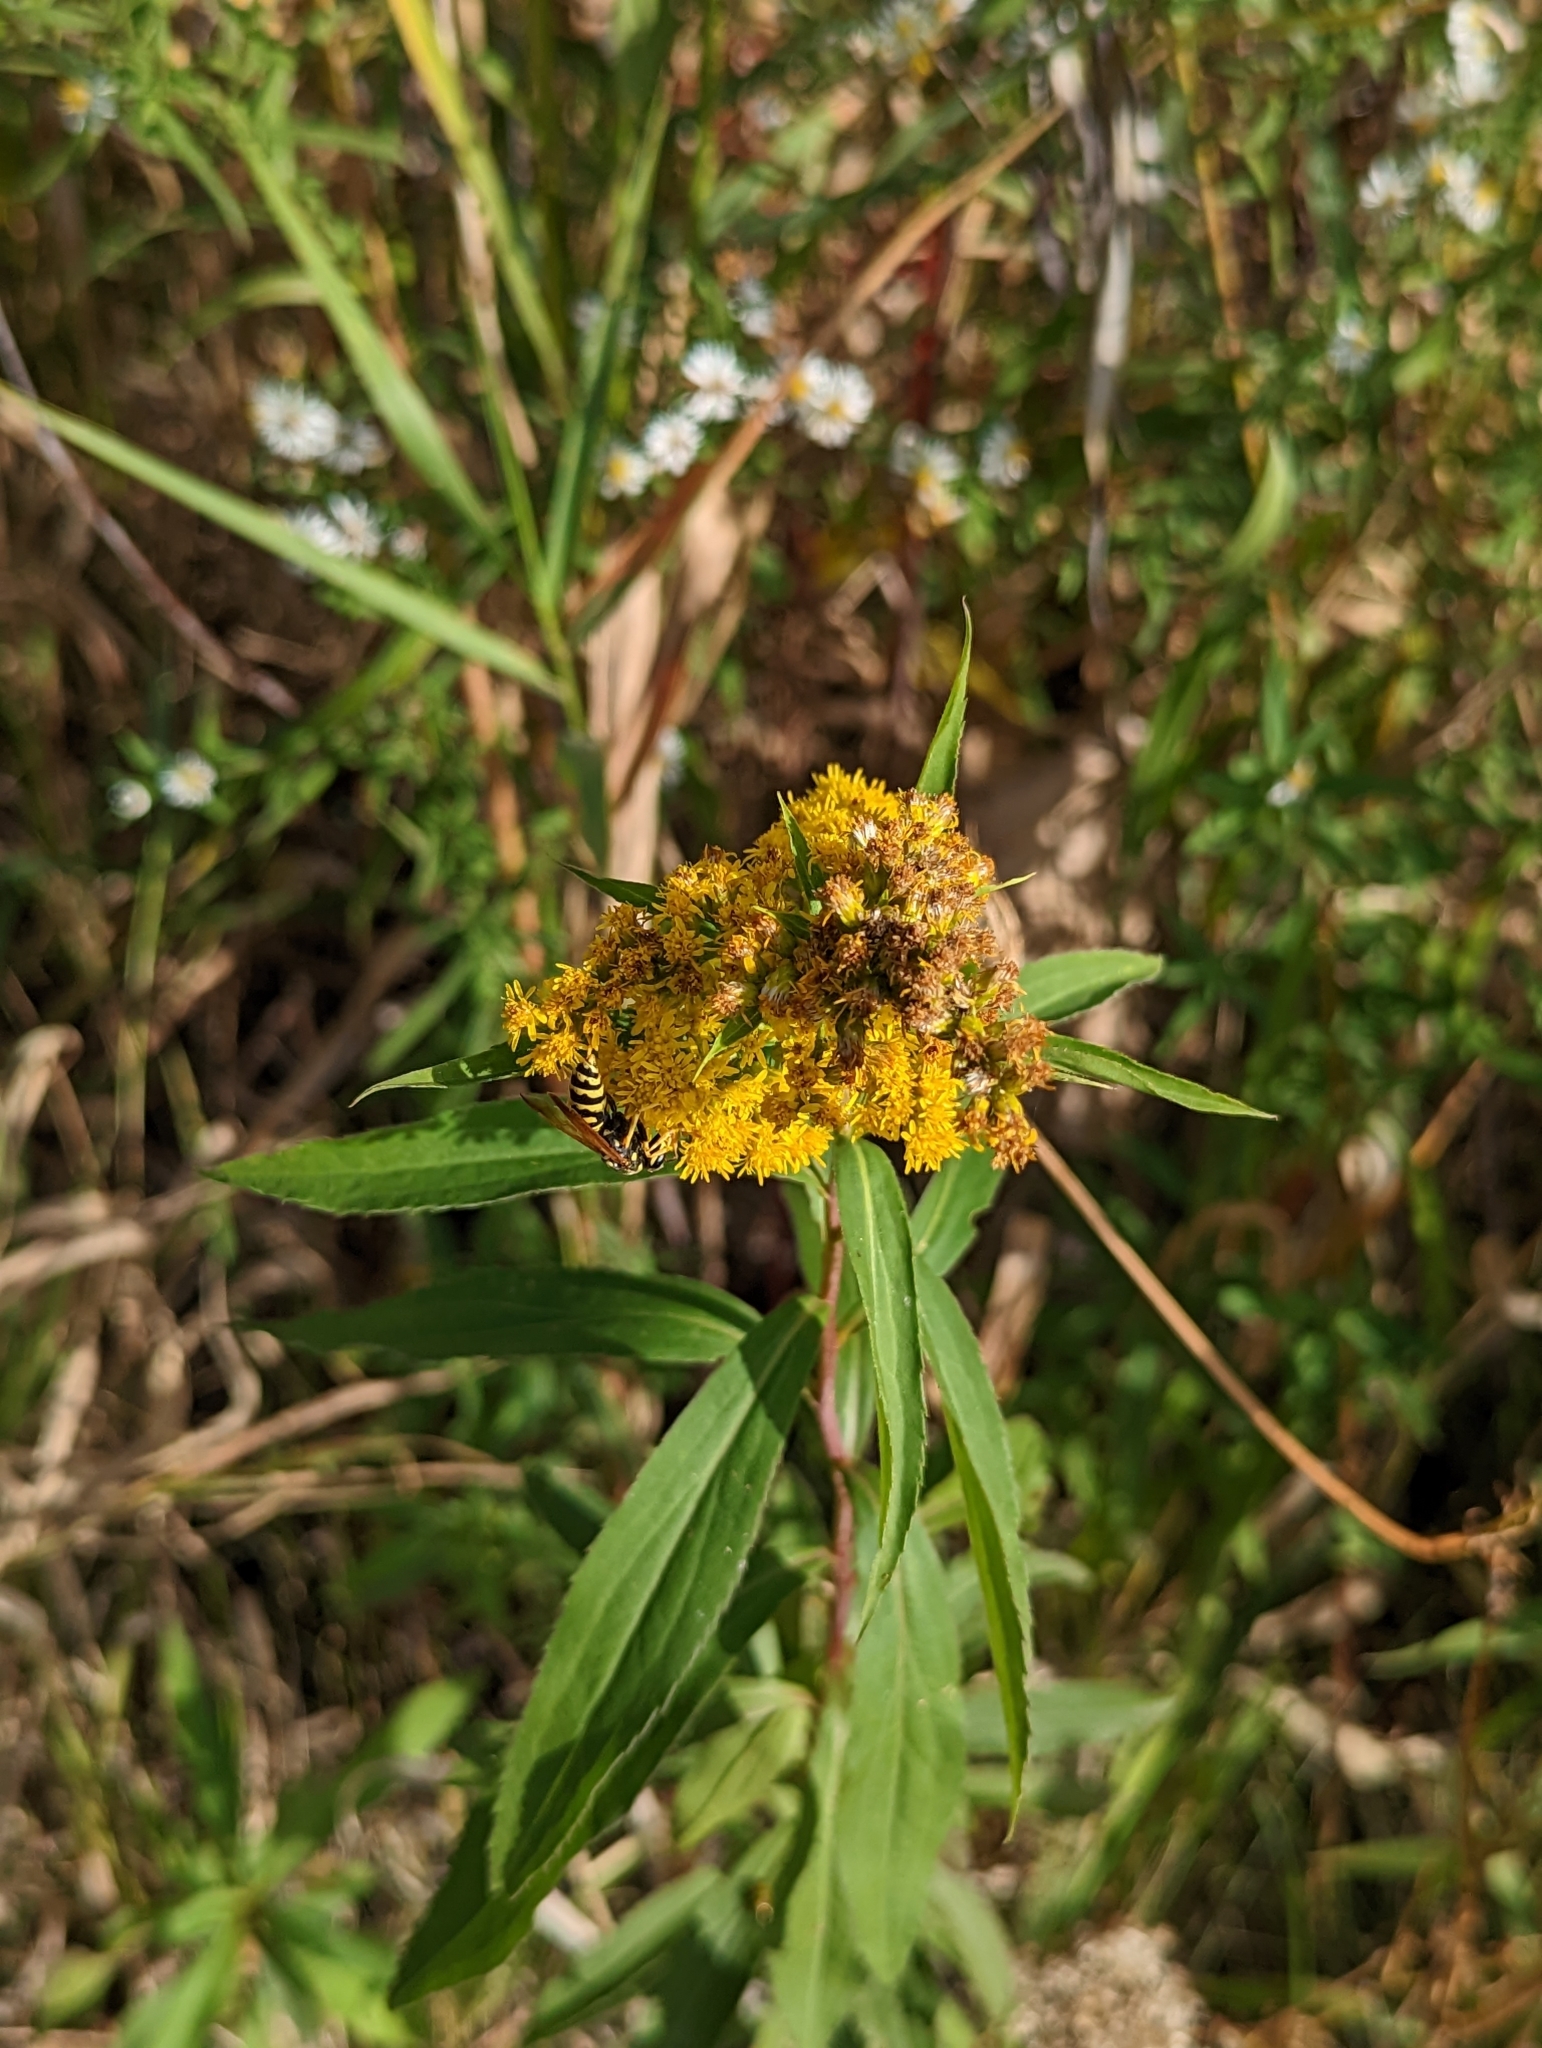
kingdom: Plantae
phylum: Tracheophyta
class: Magnoliopsida
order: Asterales
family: Asteraceae
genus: Solidago
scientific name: Solidago gigantea
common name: Giant goldenrod
